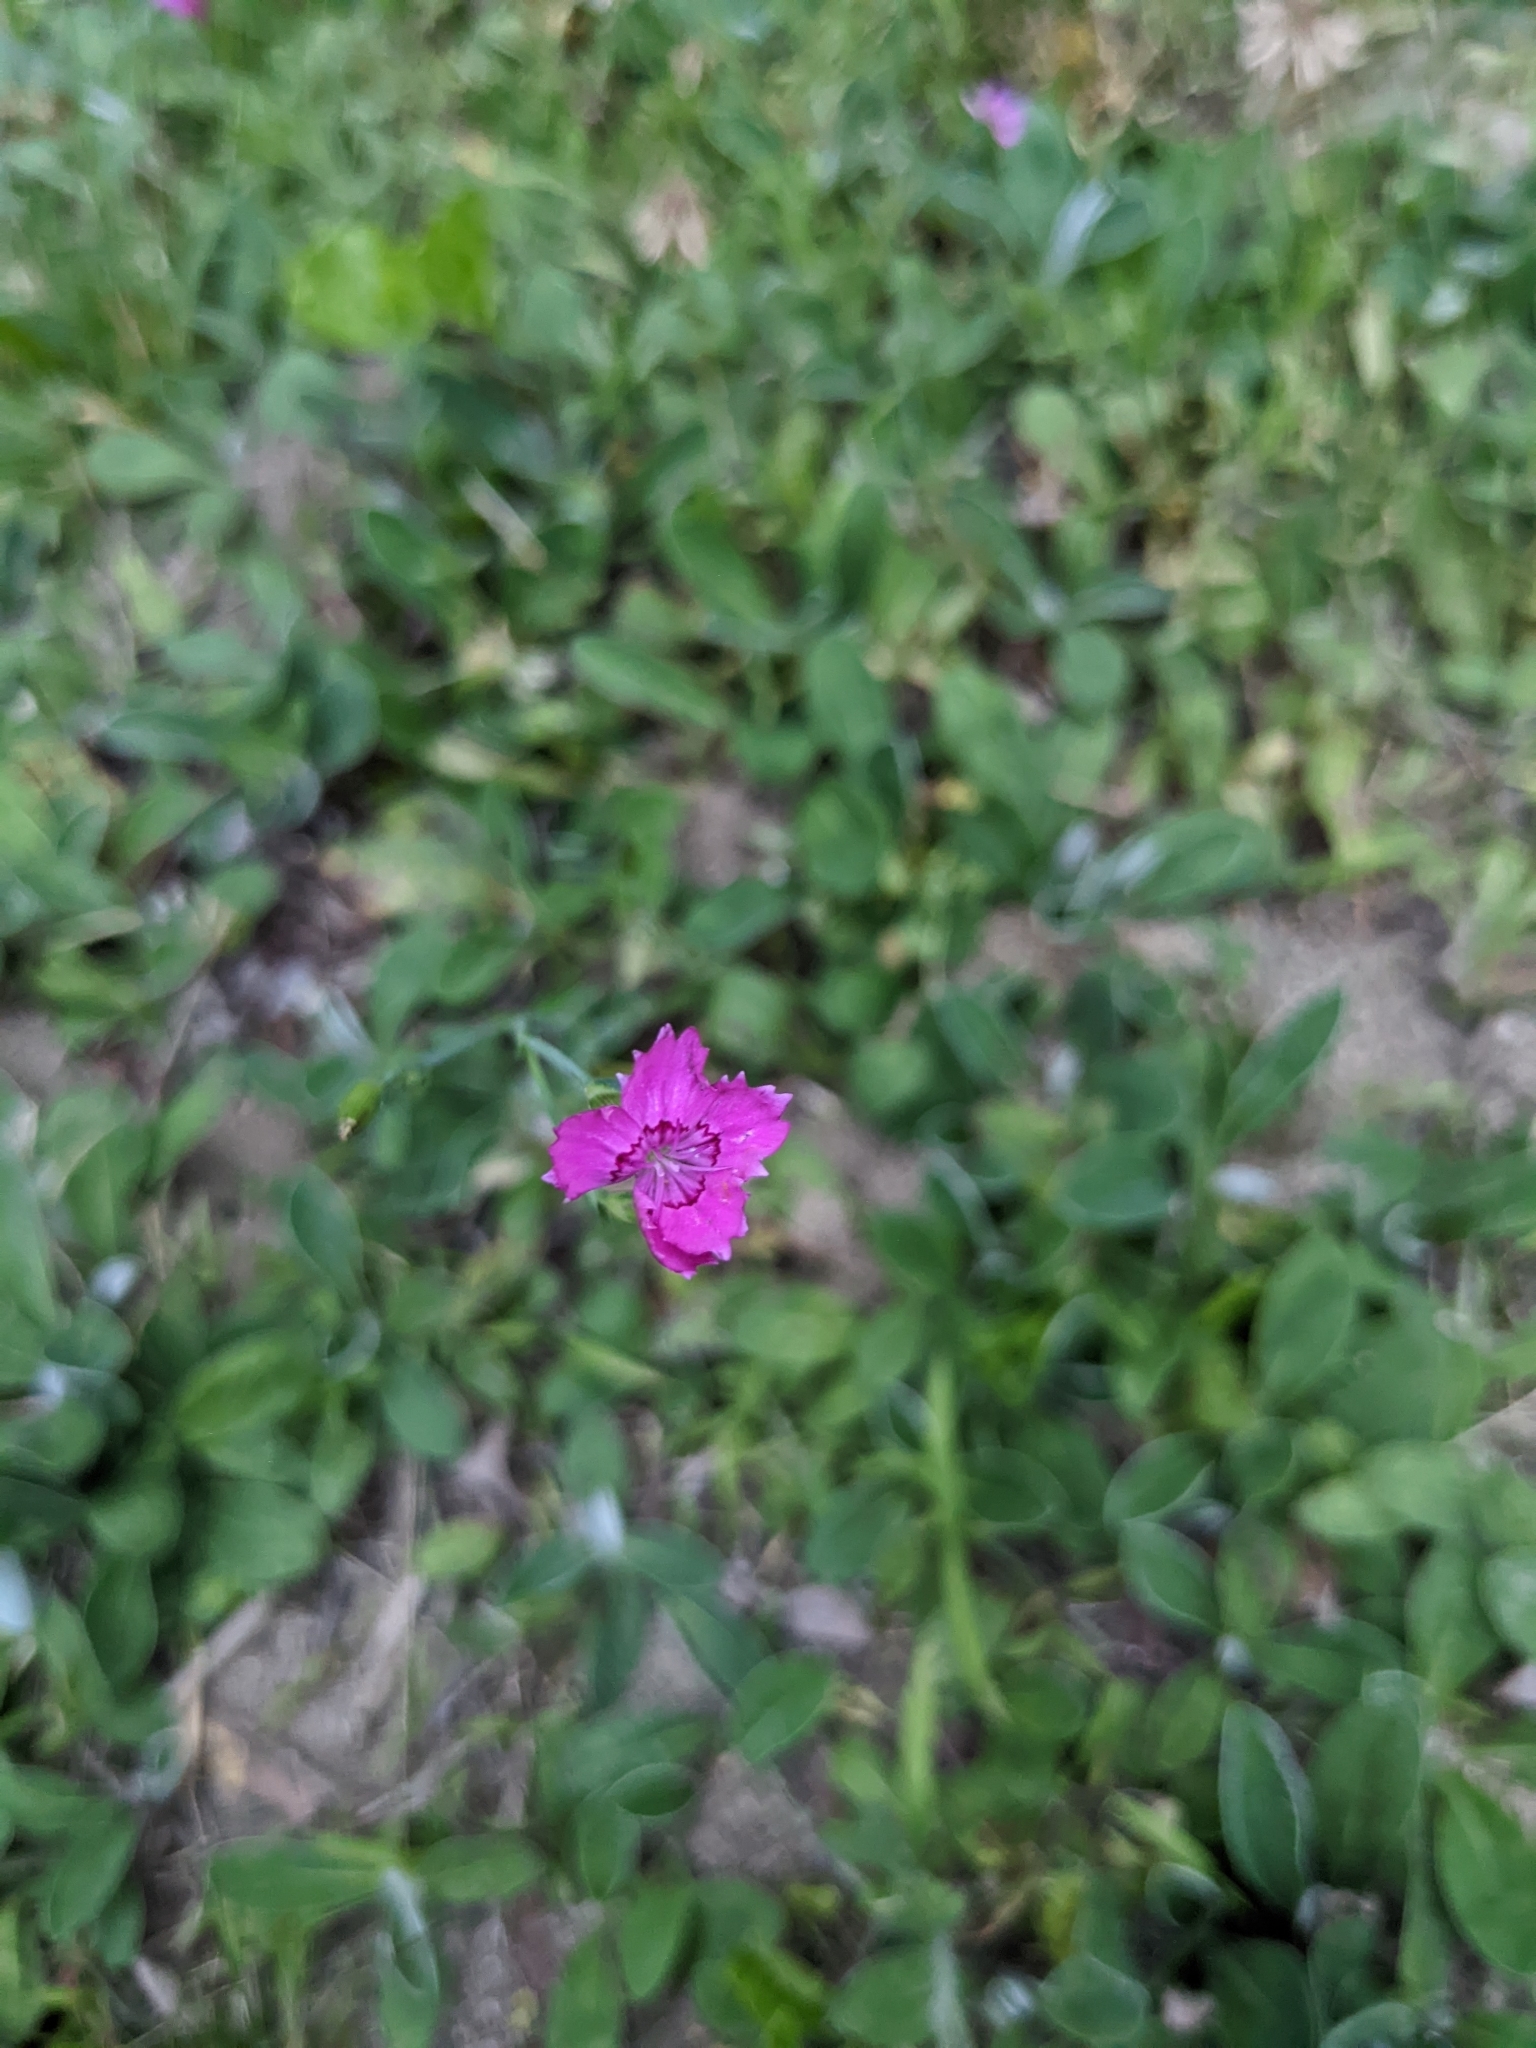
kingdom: Plantae
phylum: Tracheophyta
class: Magnoliopsida
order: Caryophyllales
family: Caryophyllaceae
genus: Dianthus
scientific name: Dianthus deltoides
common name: Maiden pink
